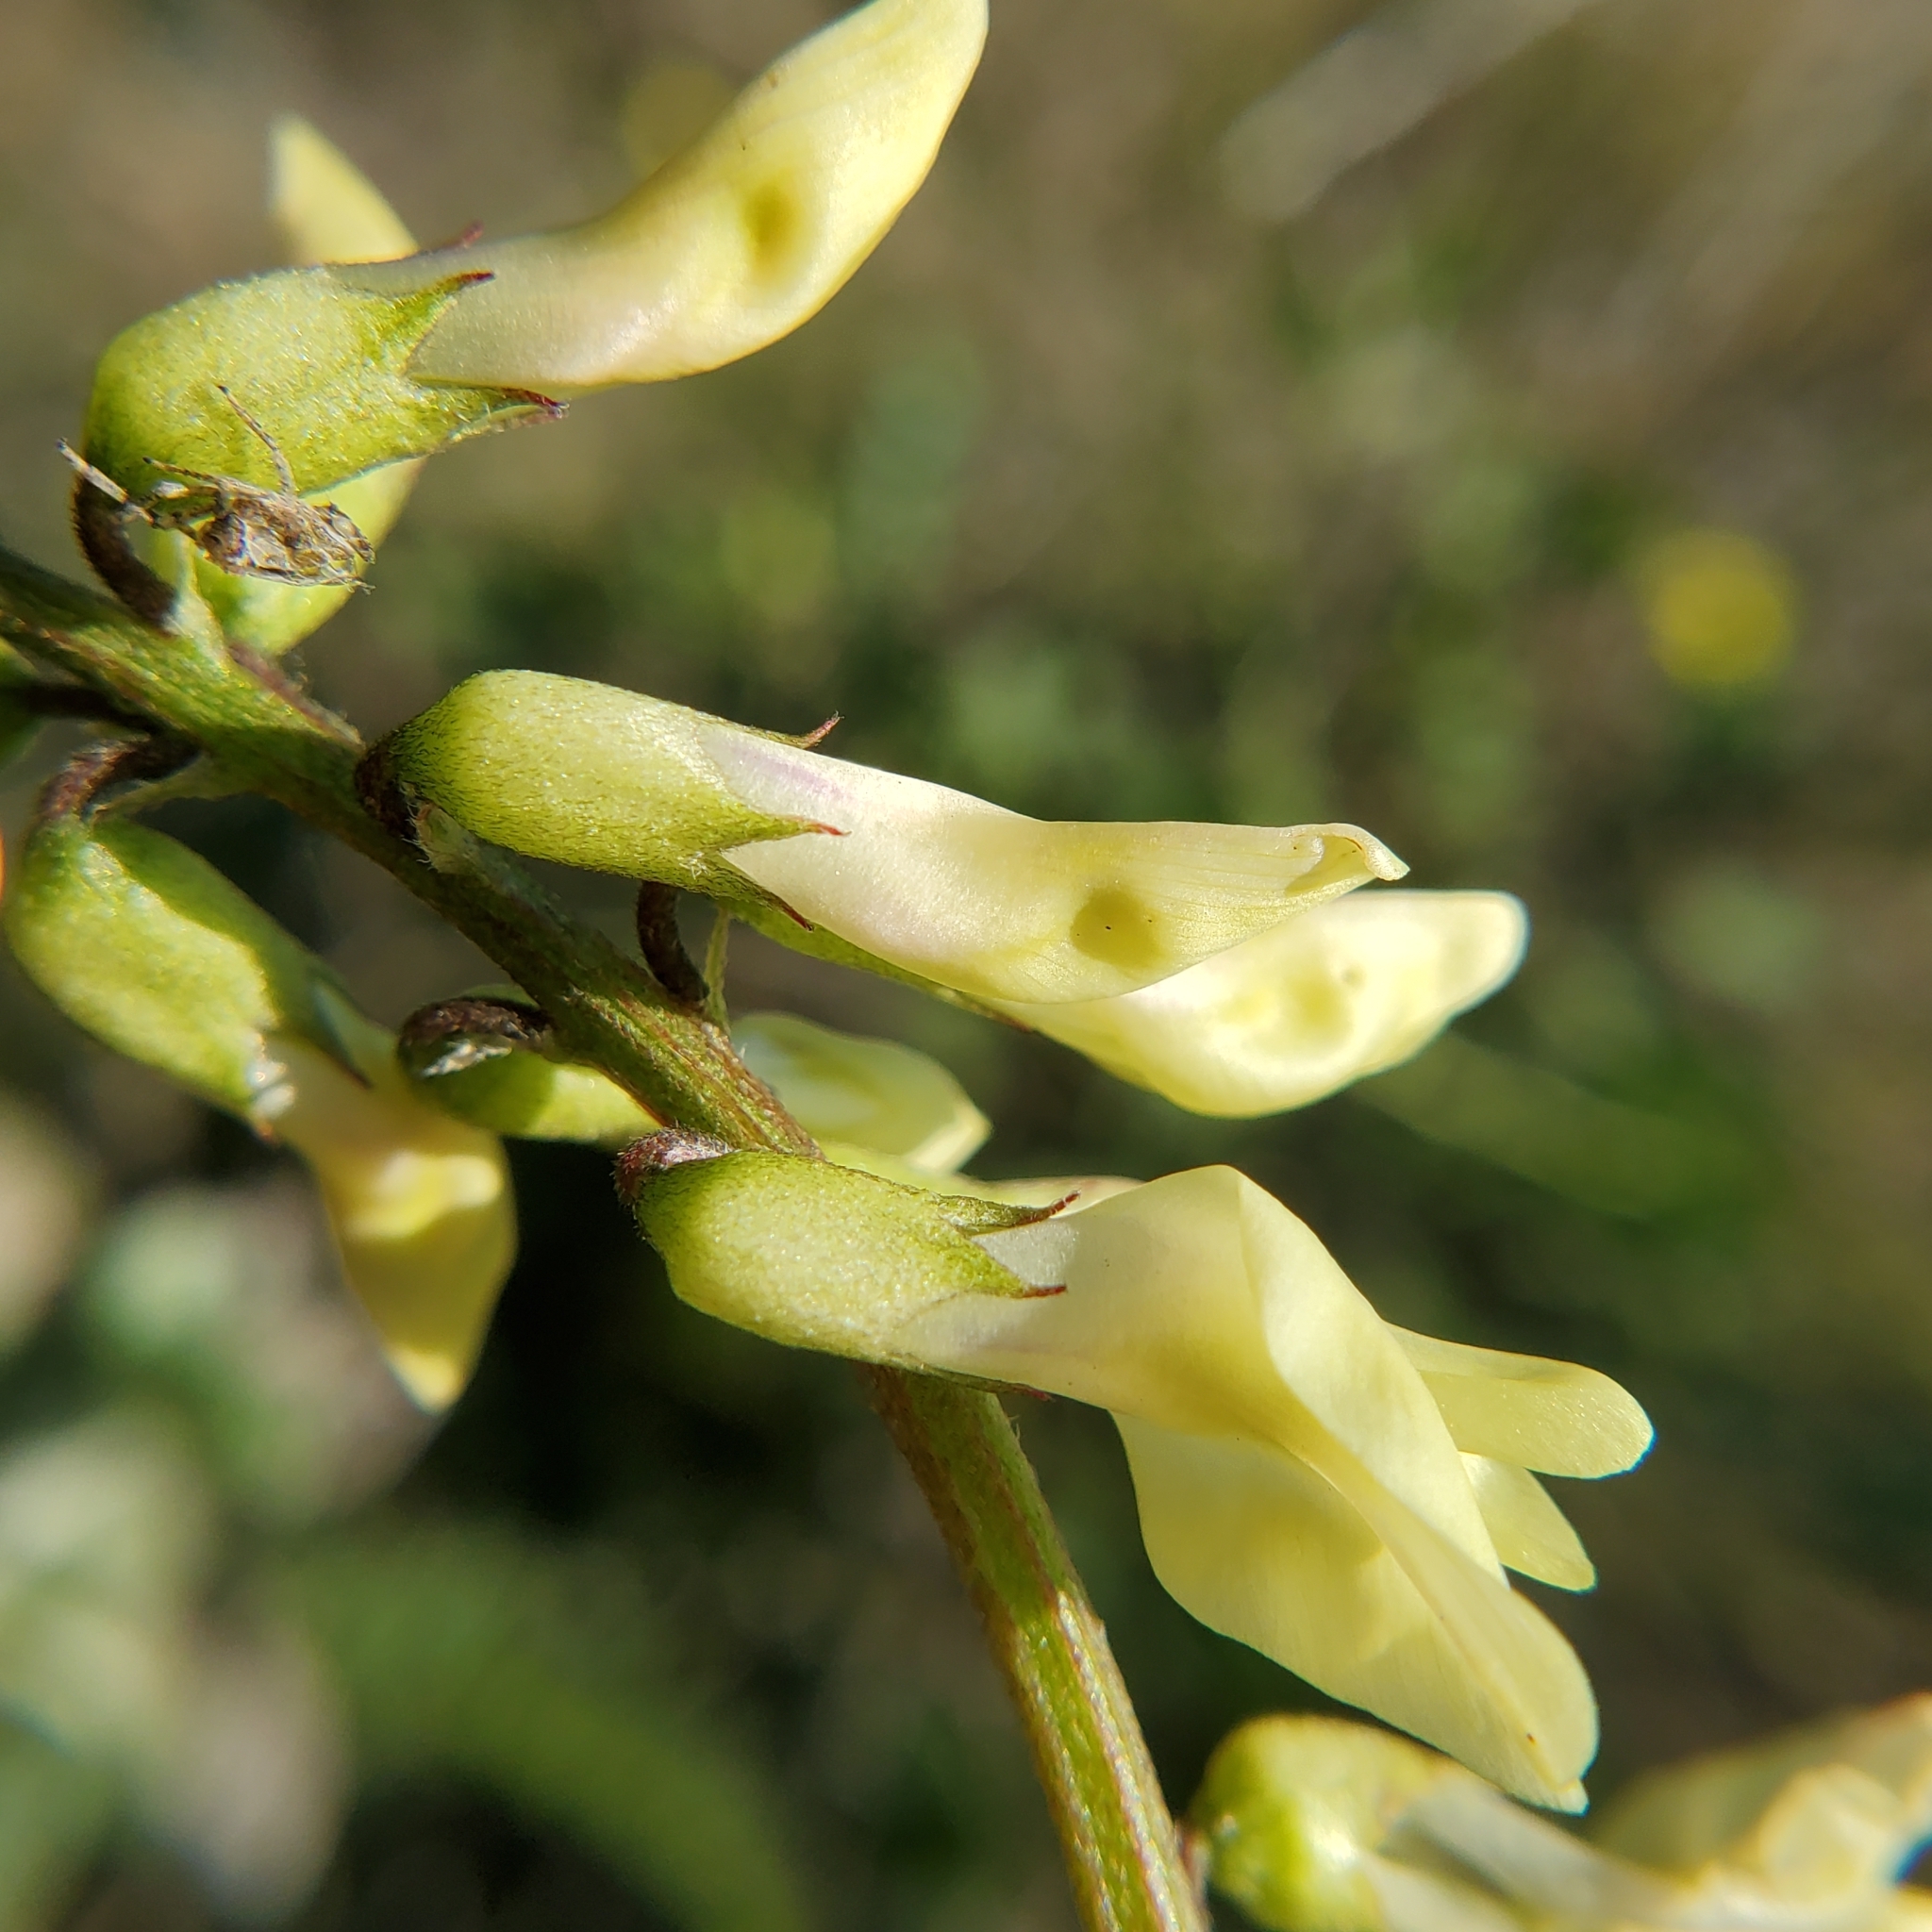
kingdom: Plantae
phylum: Tracheophyta
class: Magnoliopsida
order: Fabales
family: Fabaceae
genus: Astragalus
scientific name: Astragalus trichopodus
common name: Santa barbara milk-vetch
